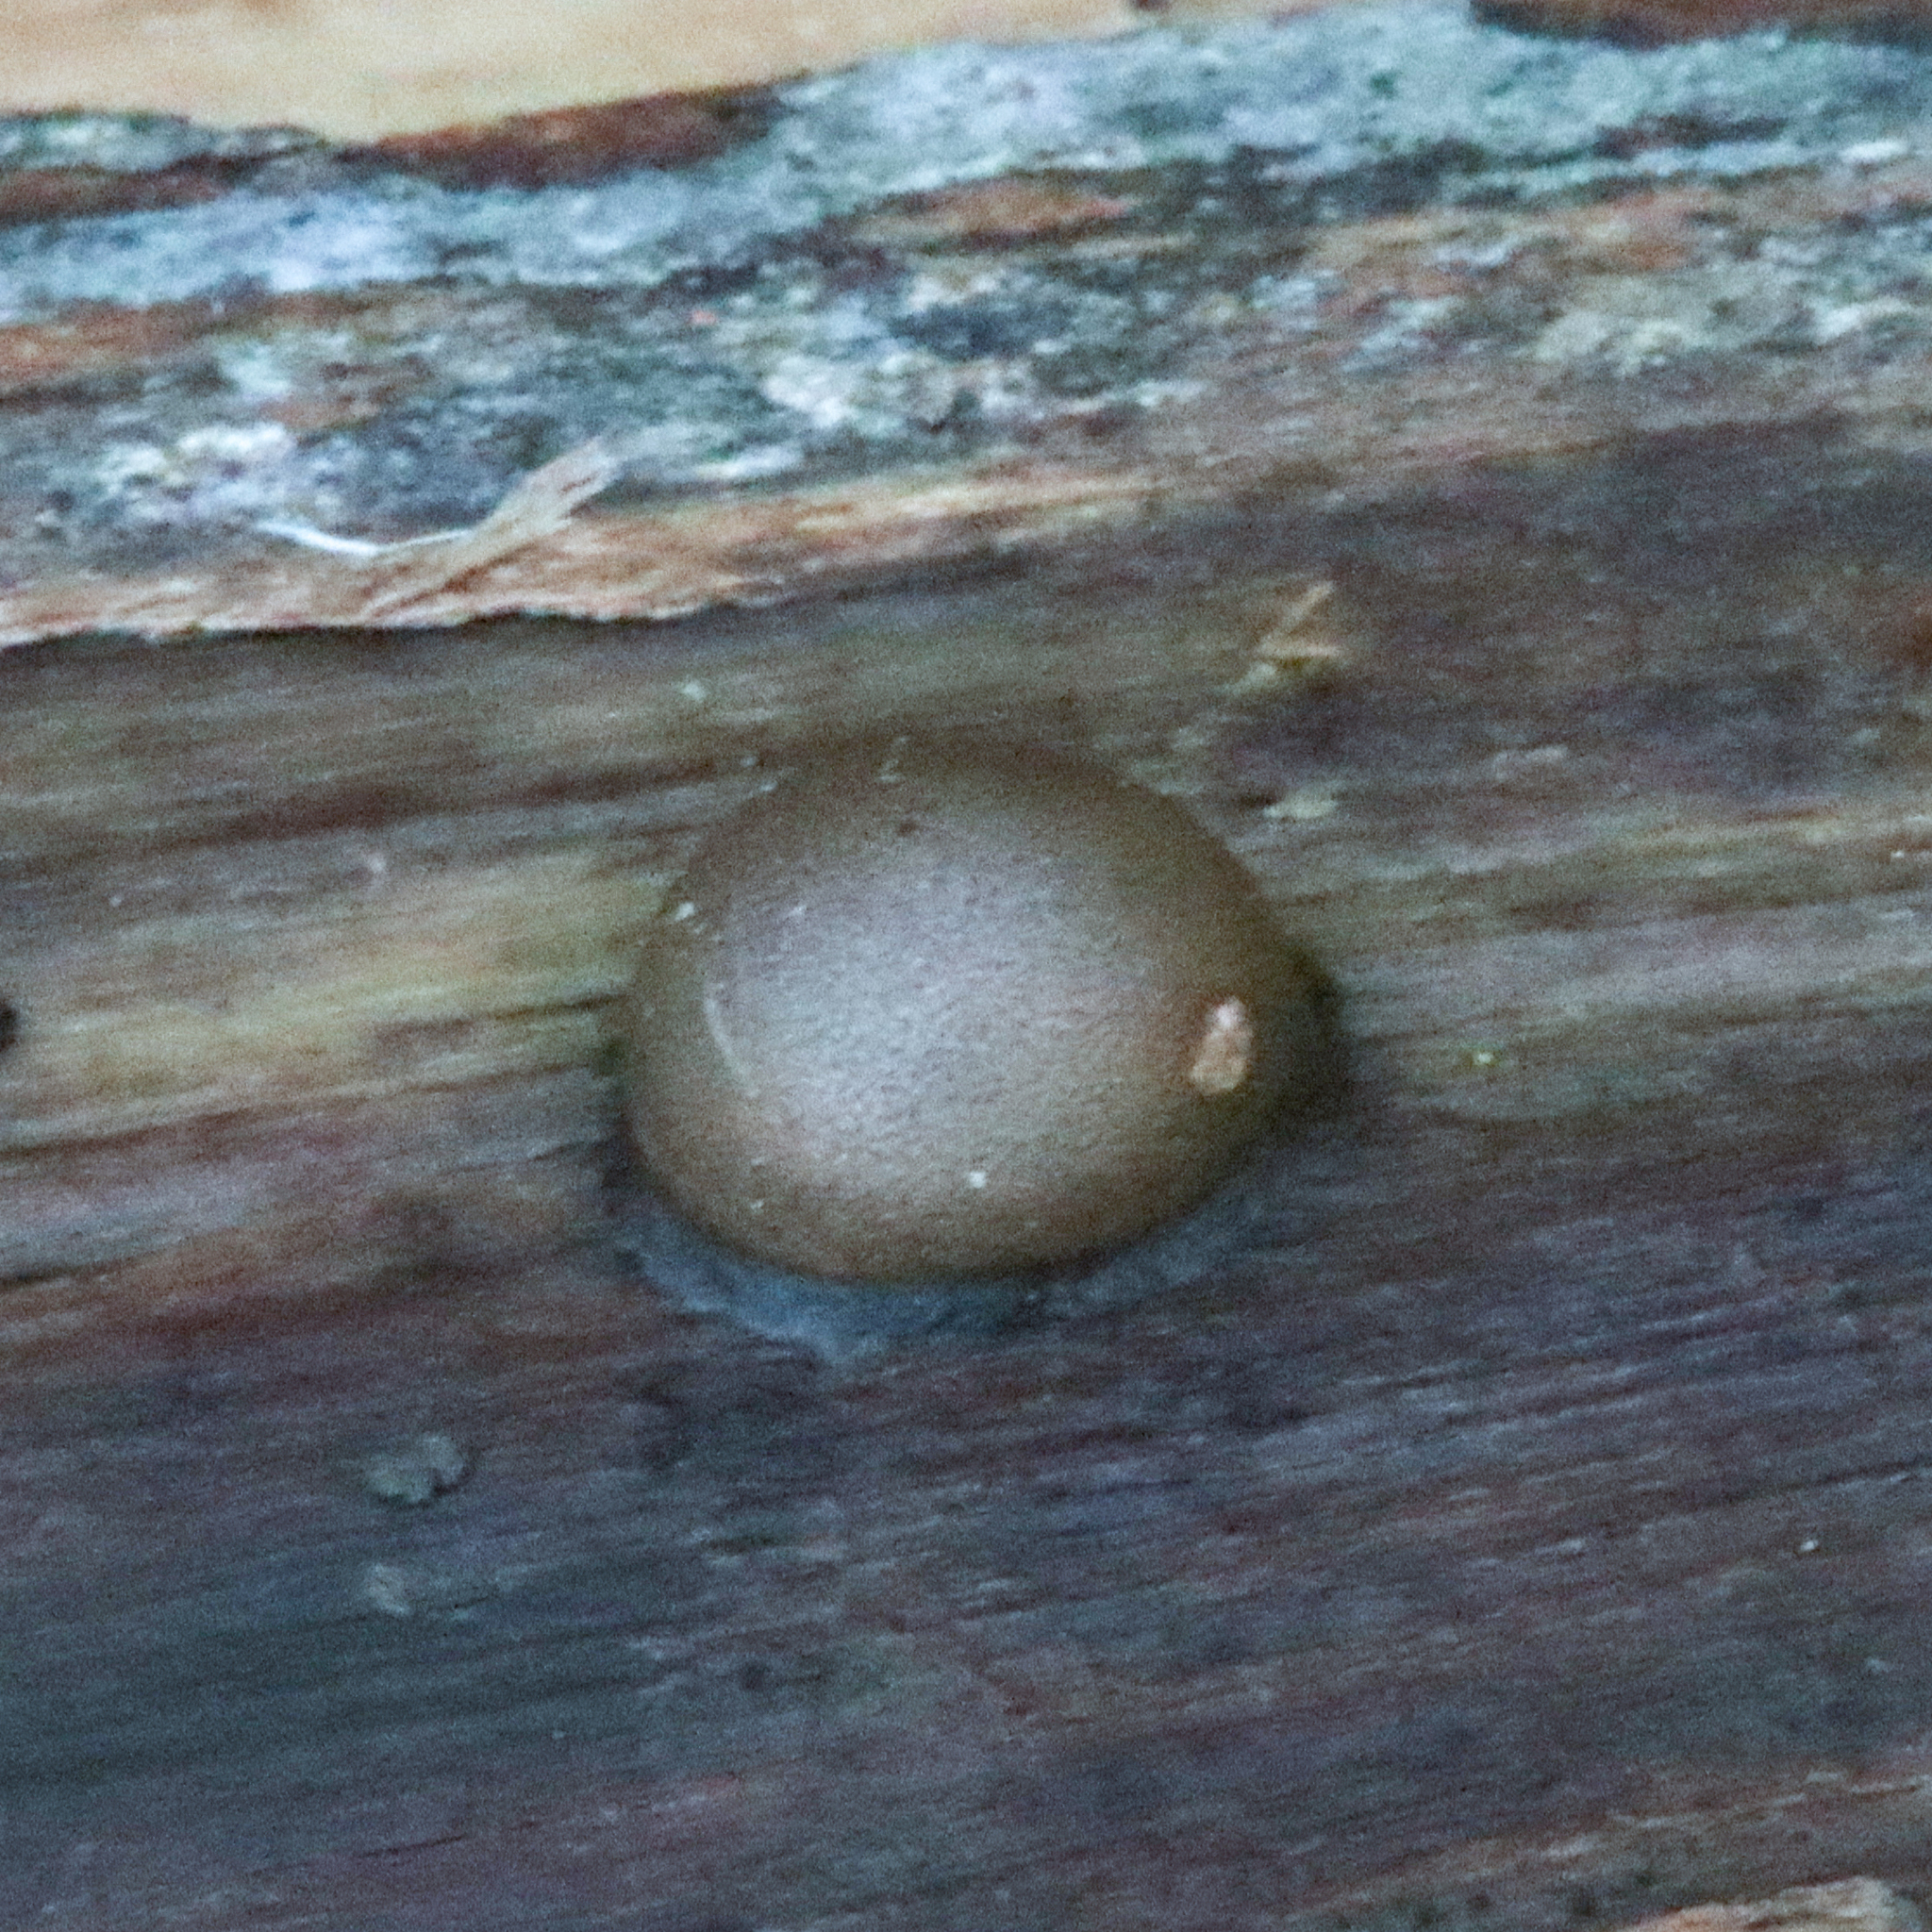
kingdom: Protozoa
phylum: Mycetozoa
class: Myxomycetes
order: Cribrariales
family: Tubiferaceae
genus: Lycogala
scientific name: Lycogala epidendrum
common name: Wolf's milk
